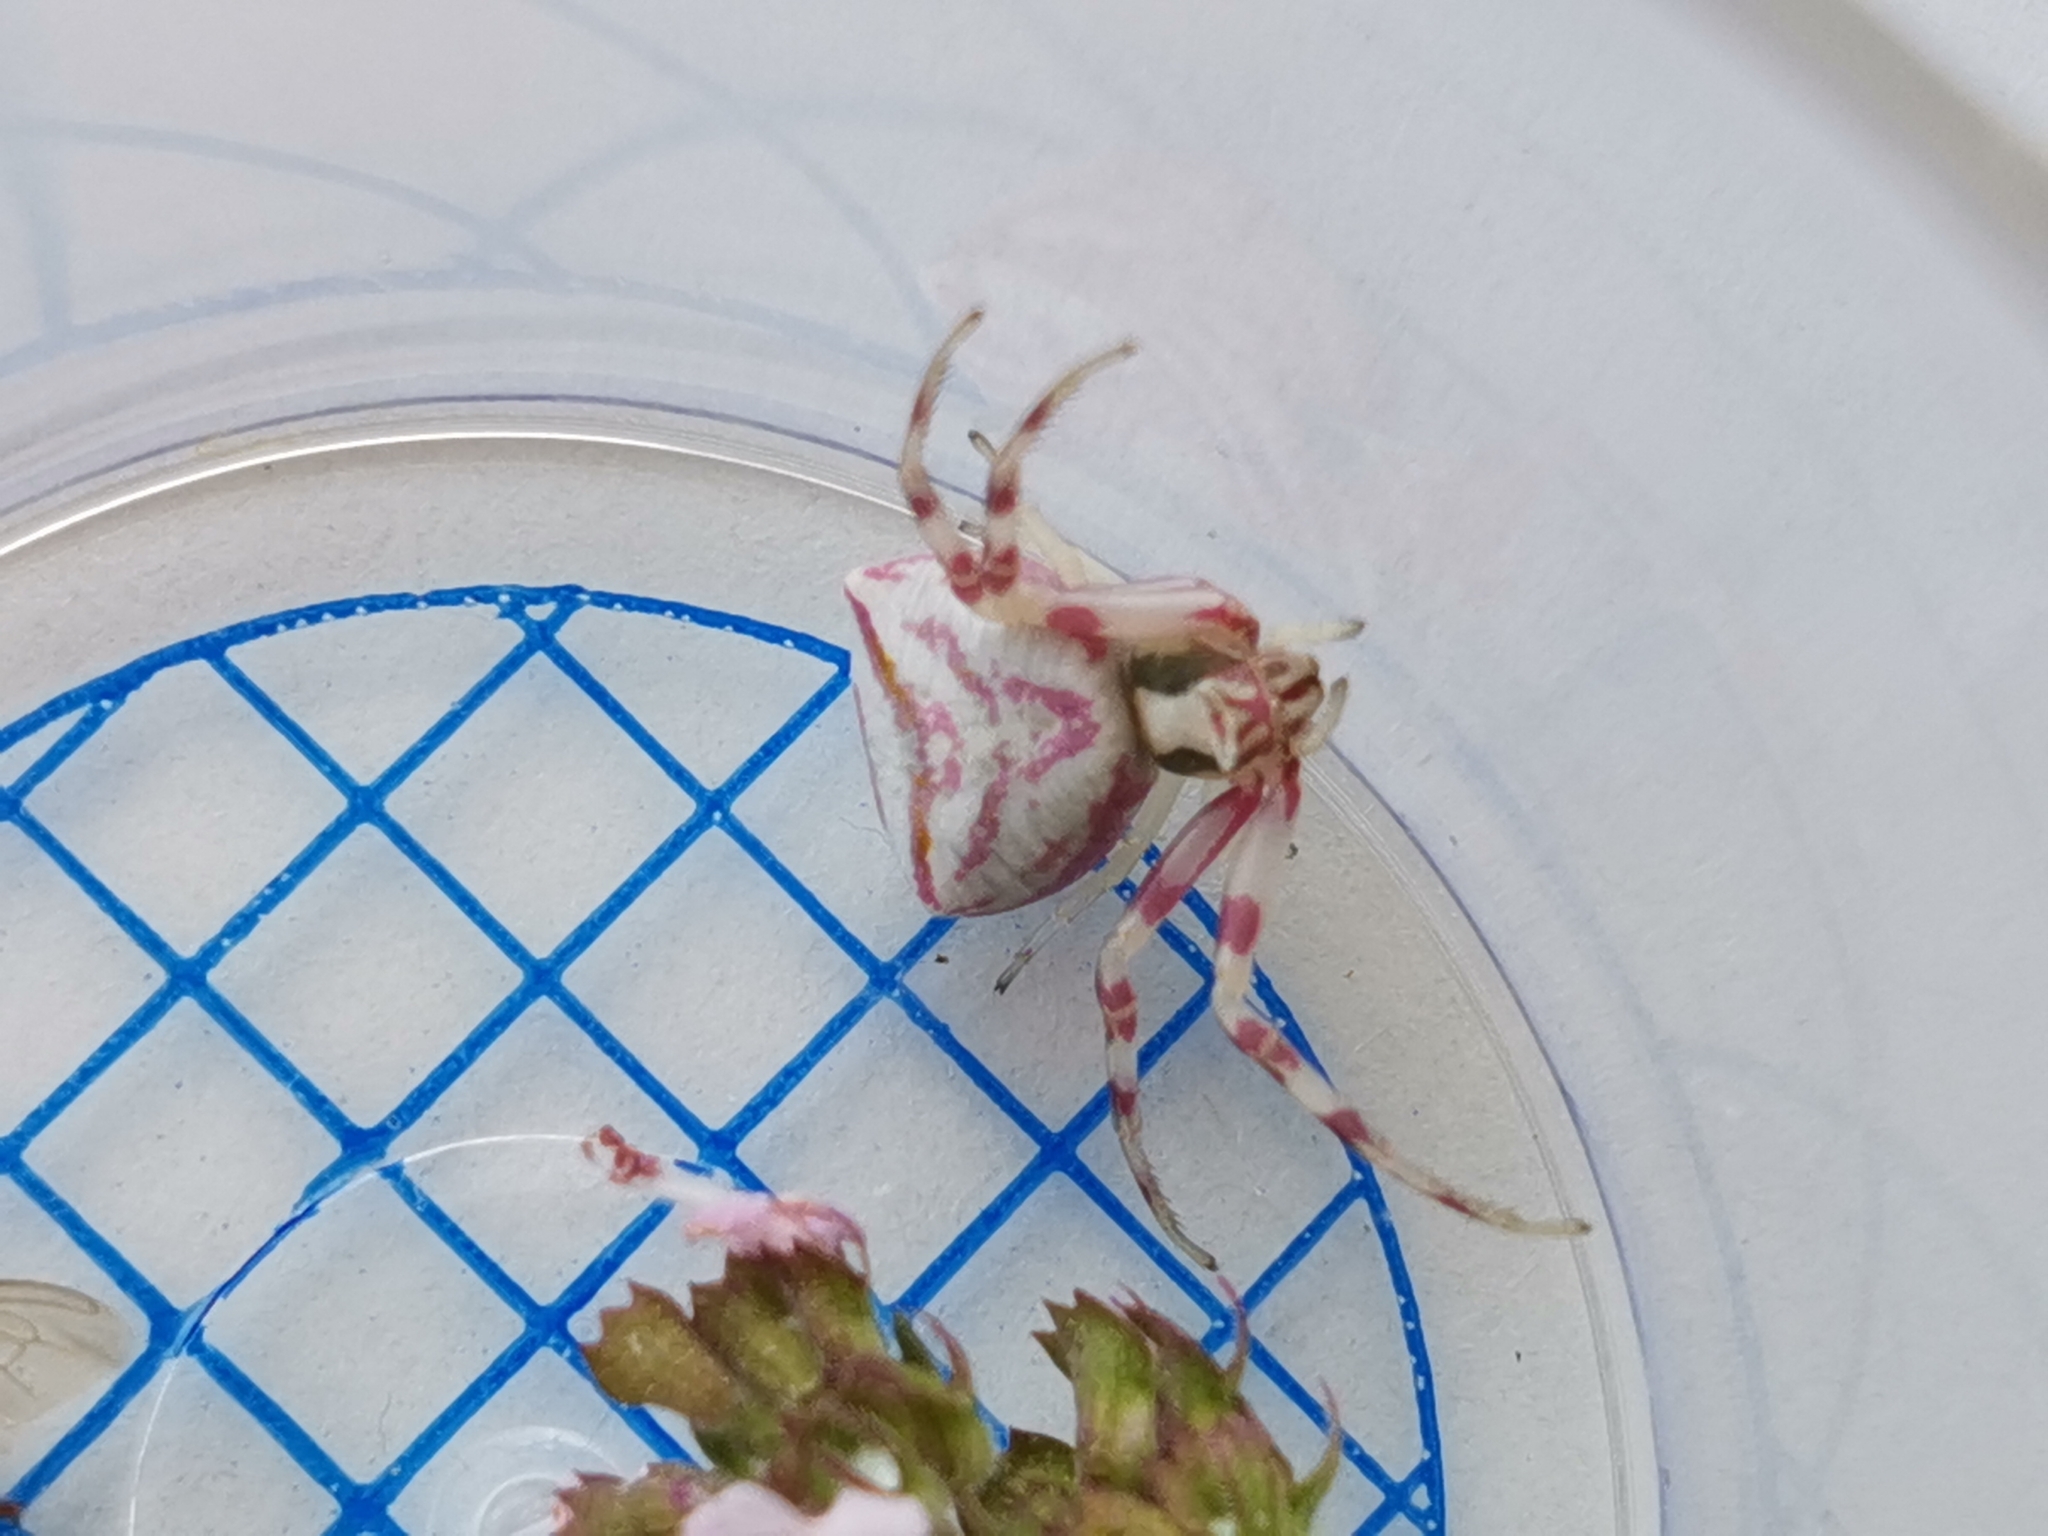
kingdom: Animalia
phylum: Arthropoda
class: Arachnida
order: Araneae
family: Thomisidae
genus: Thomisus
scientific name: Thomisus onustus
